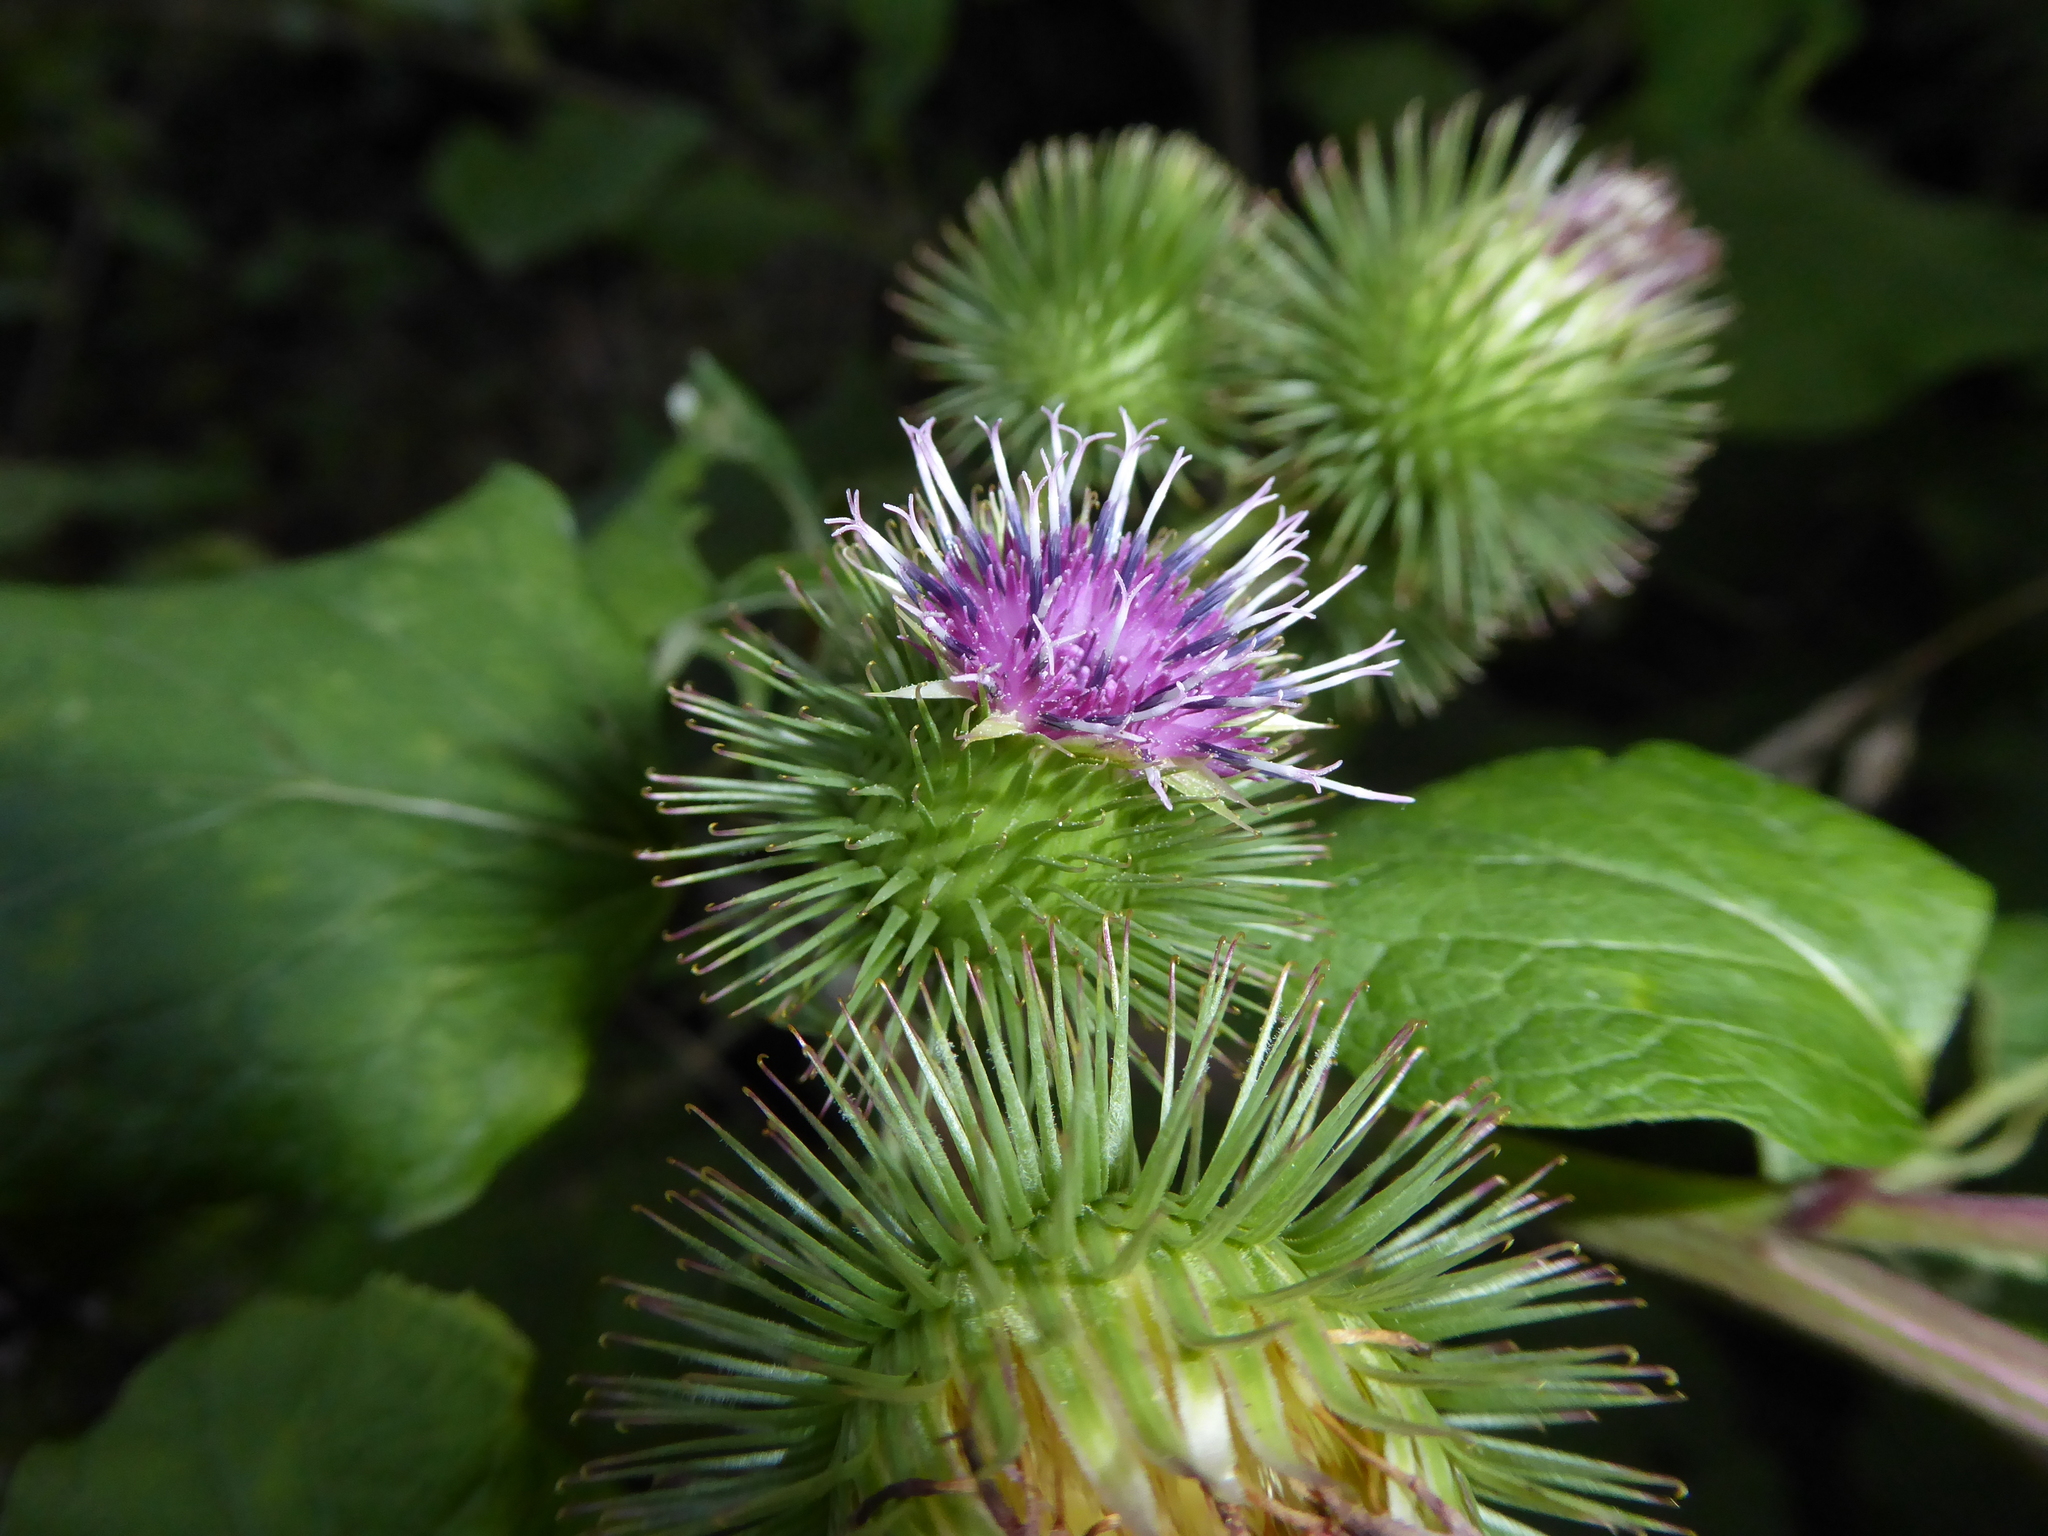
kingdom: Plantae
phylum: Tracheophyta
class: Magnoliopsida
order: Asterales
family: Asteraceae
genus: Arctium
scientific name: Arctium lappa
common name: Greater burdock
